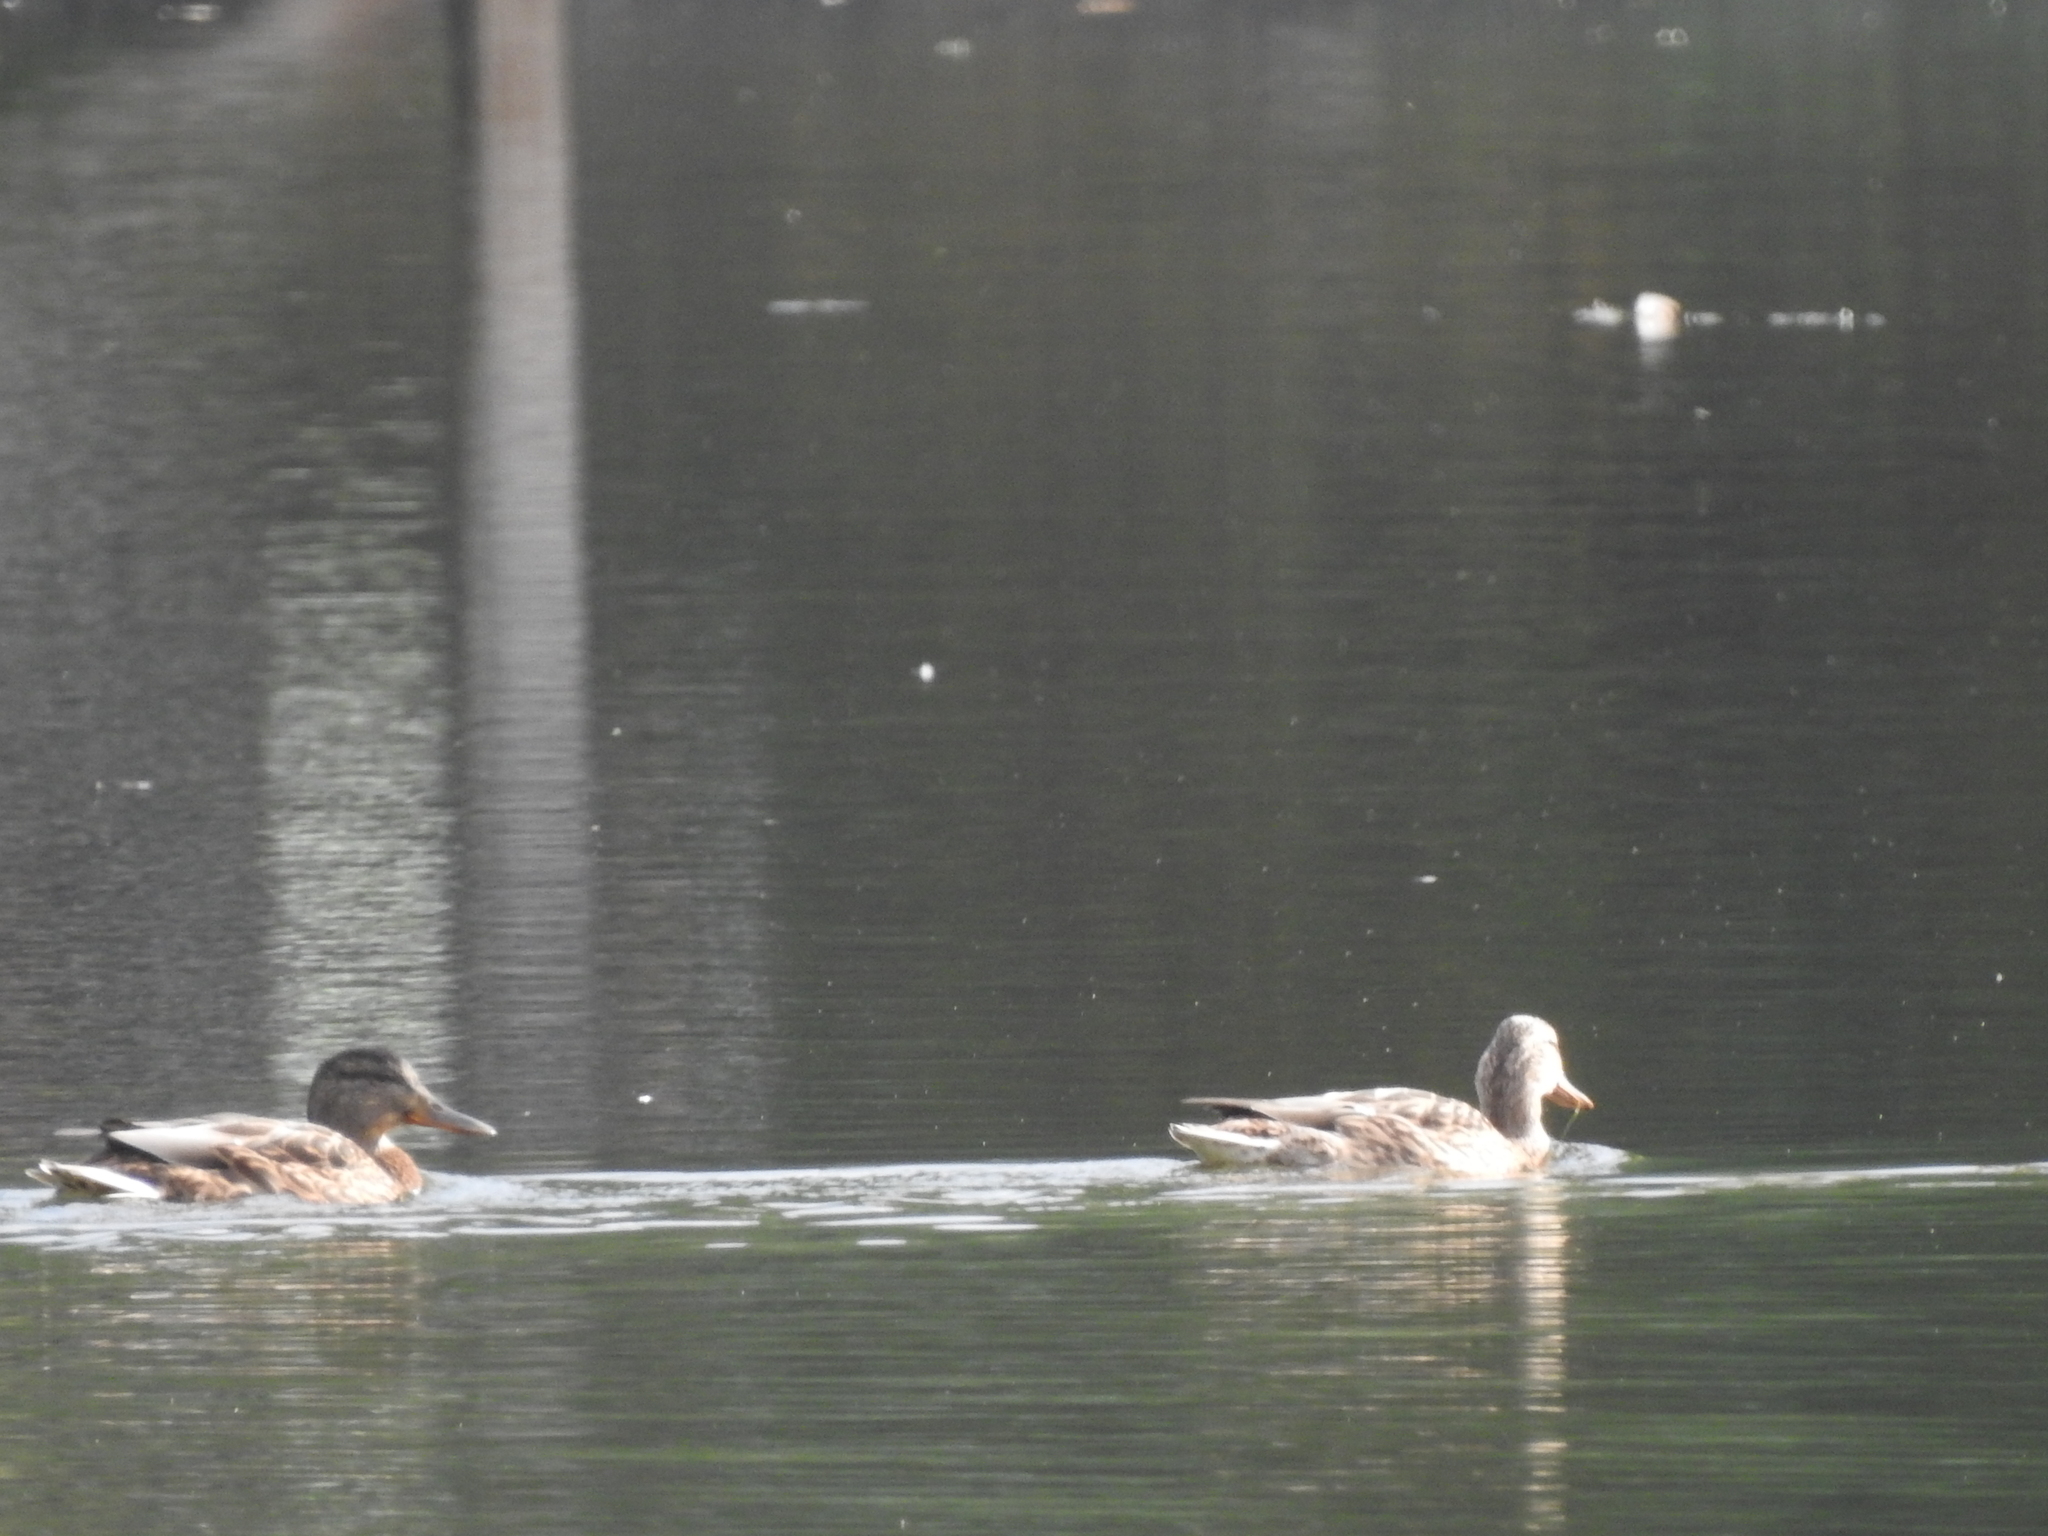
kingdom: Animalia
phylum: Chordata
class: Aves
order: Anseriformes
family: Anatidae
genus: Anas
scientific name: Anas platyrhynchos
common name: Mallard
